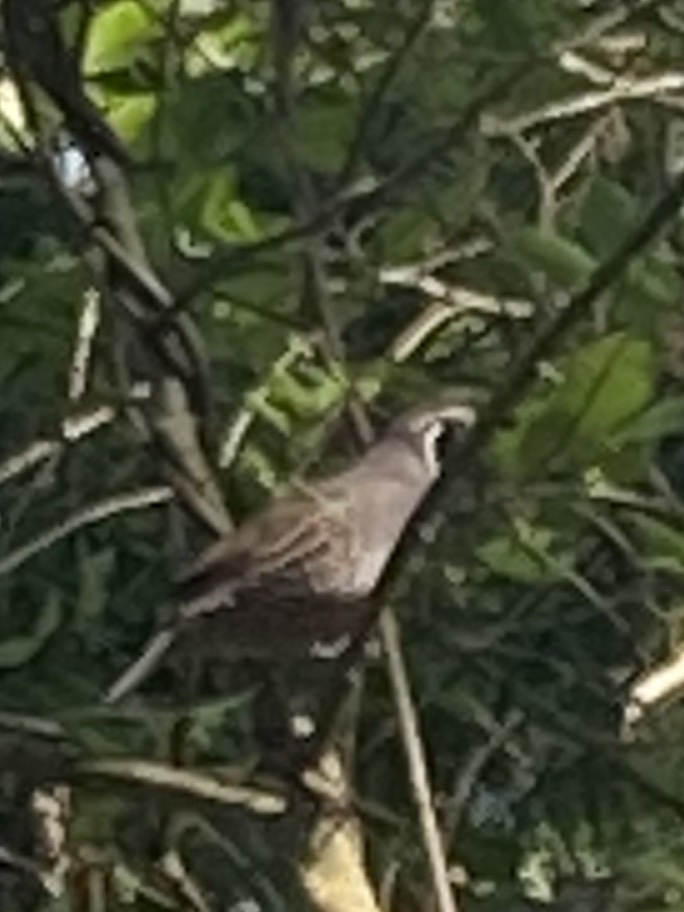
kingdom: Animalia
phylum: Chordata
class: Aves
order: Galliformes
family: Odontophoridae
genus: Callipepla
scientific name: Callipepla californica
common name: California quail
